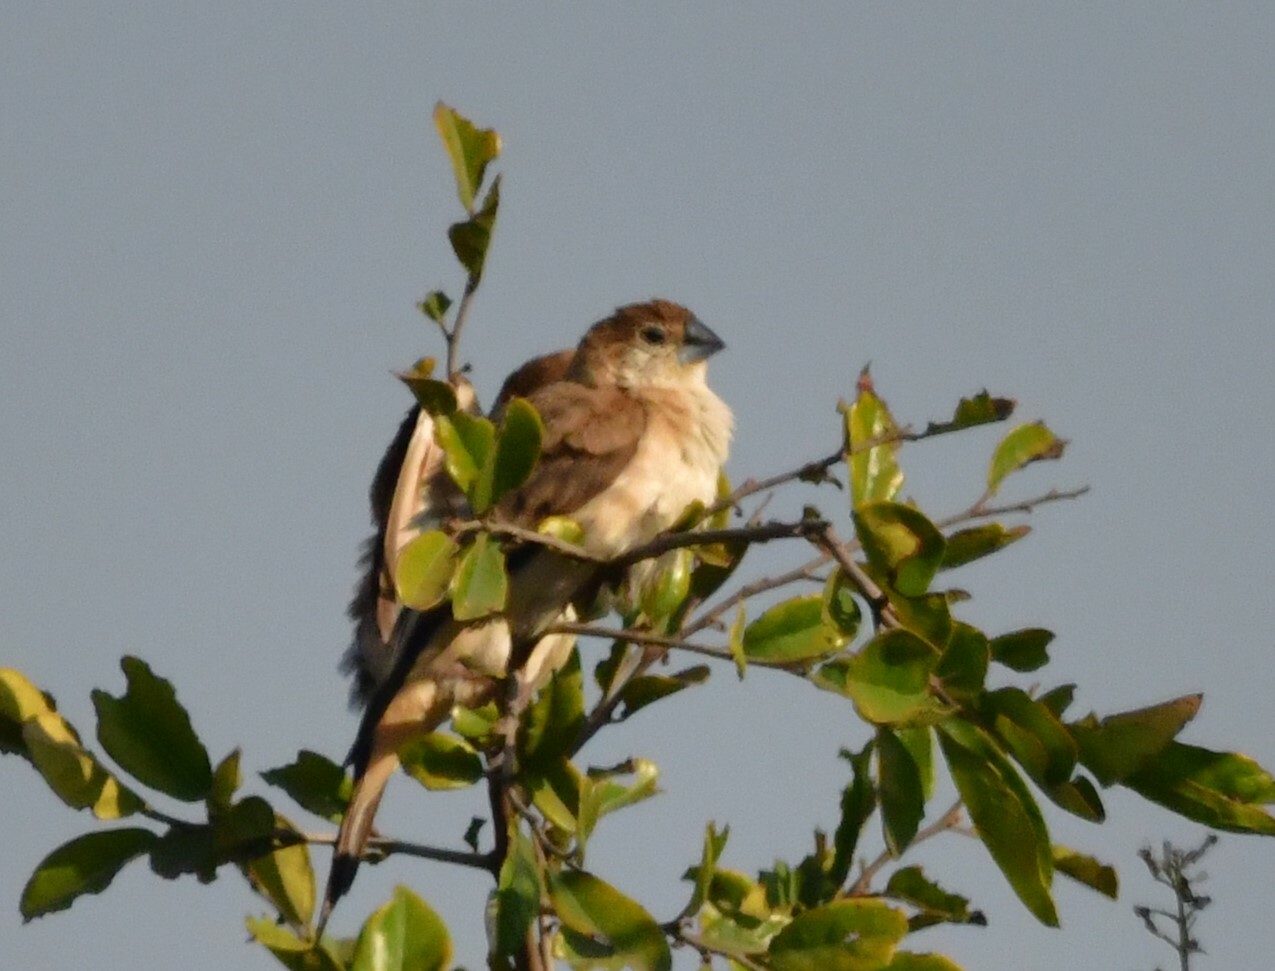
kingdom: Animalia
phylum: Chordata
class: Aves
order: Passeriformes
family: Estrildidae
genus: Euodice
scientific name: Euodice malabarica
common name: Indian silverbill
